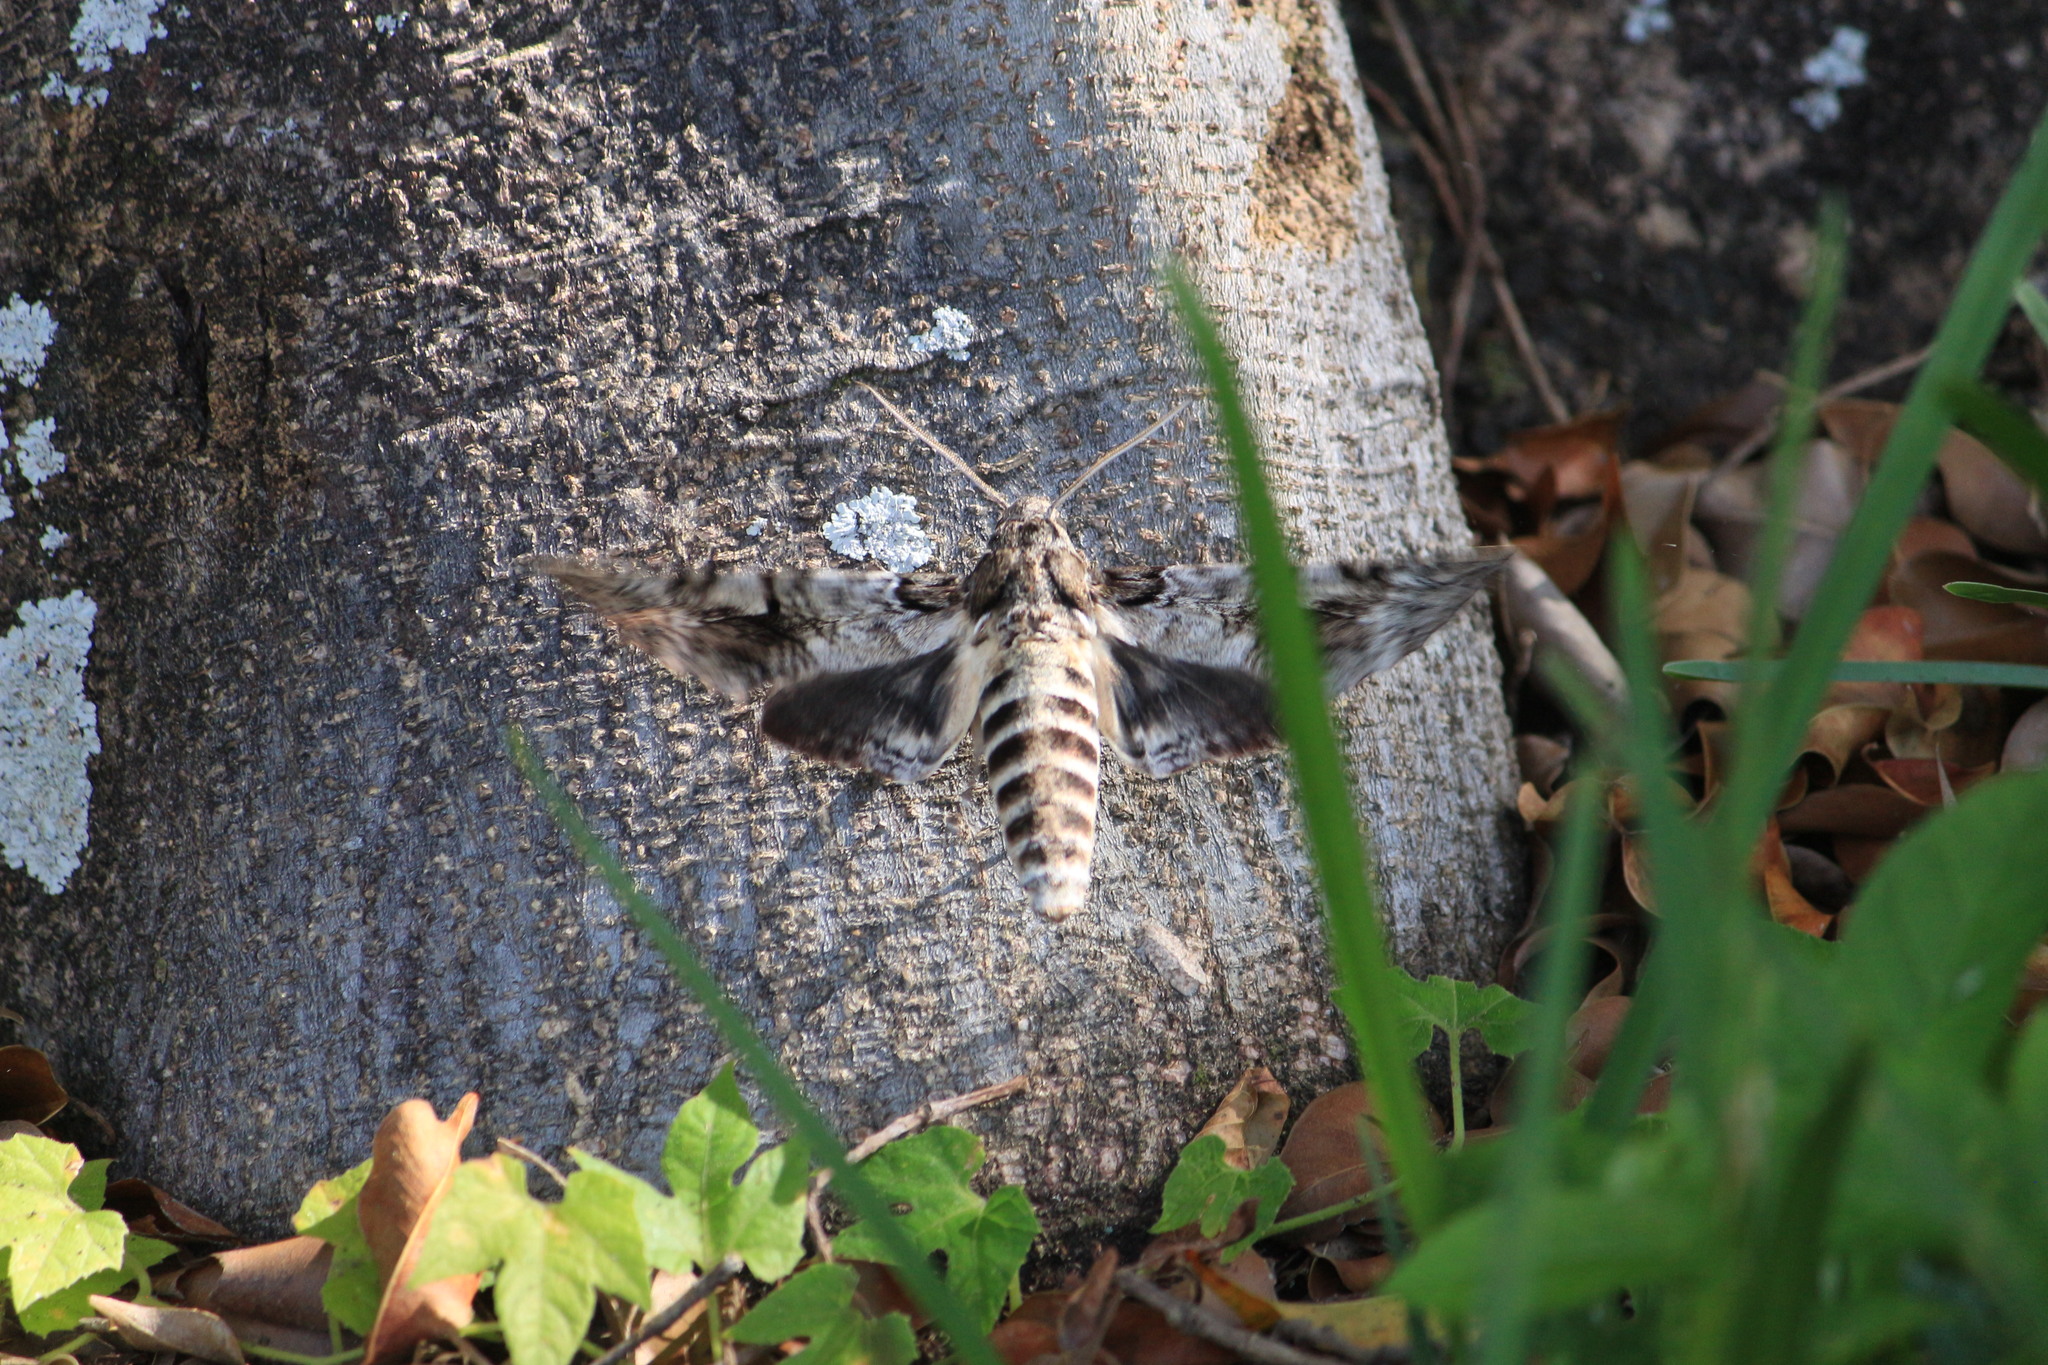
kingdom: Animalia
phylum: Arthropoda
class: Insecta
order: Lepidoptera
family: Sphingidae
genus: Pseudosphinx
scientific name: Pseudosphinx tetrio
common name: Tetrio sphinx
